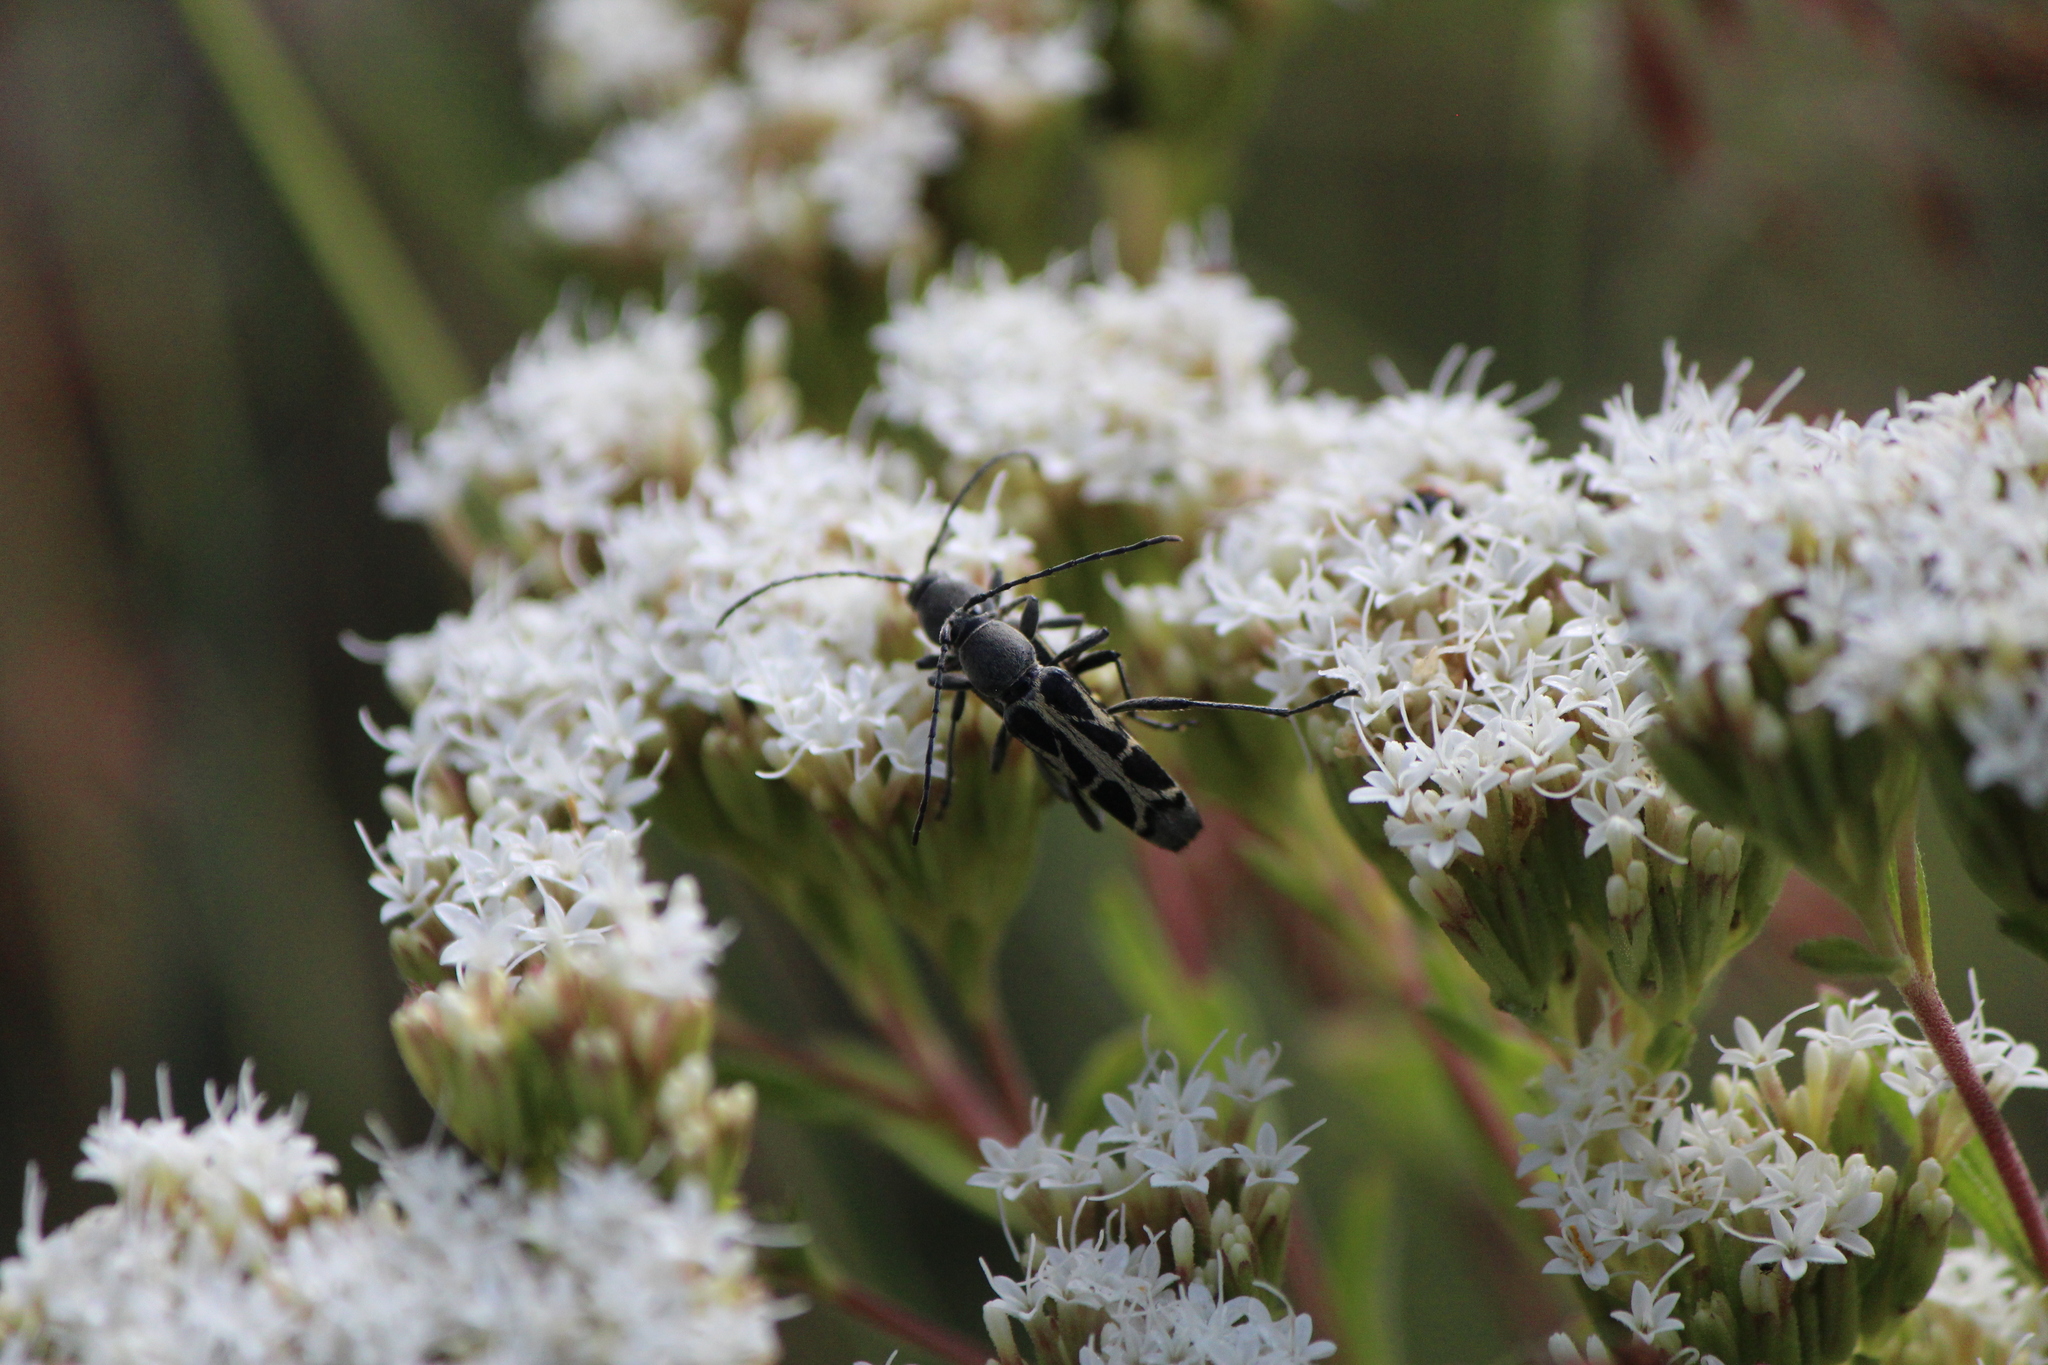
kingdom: Animalia
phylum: Arthropoda
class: Insecta
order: Coleoptera
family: Cerambycidae
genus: Tanyochraethes
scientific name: Tanyochraethes clathratus
